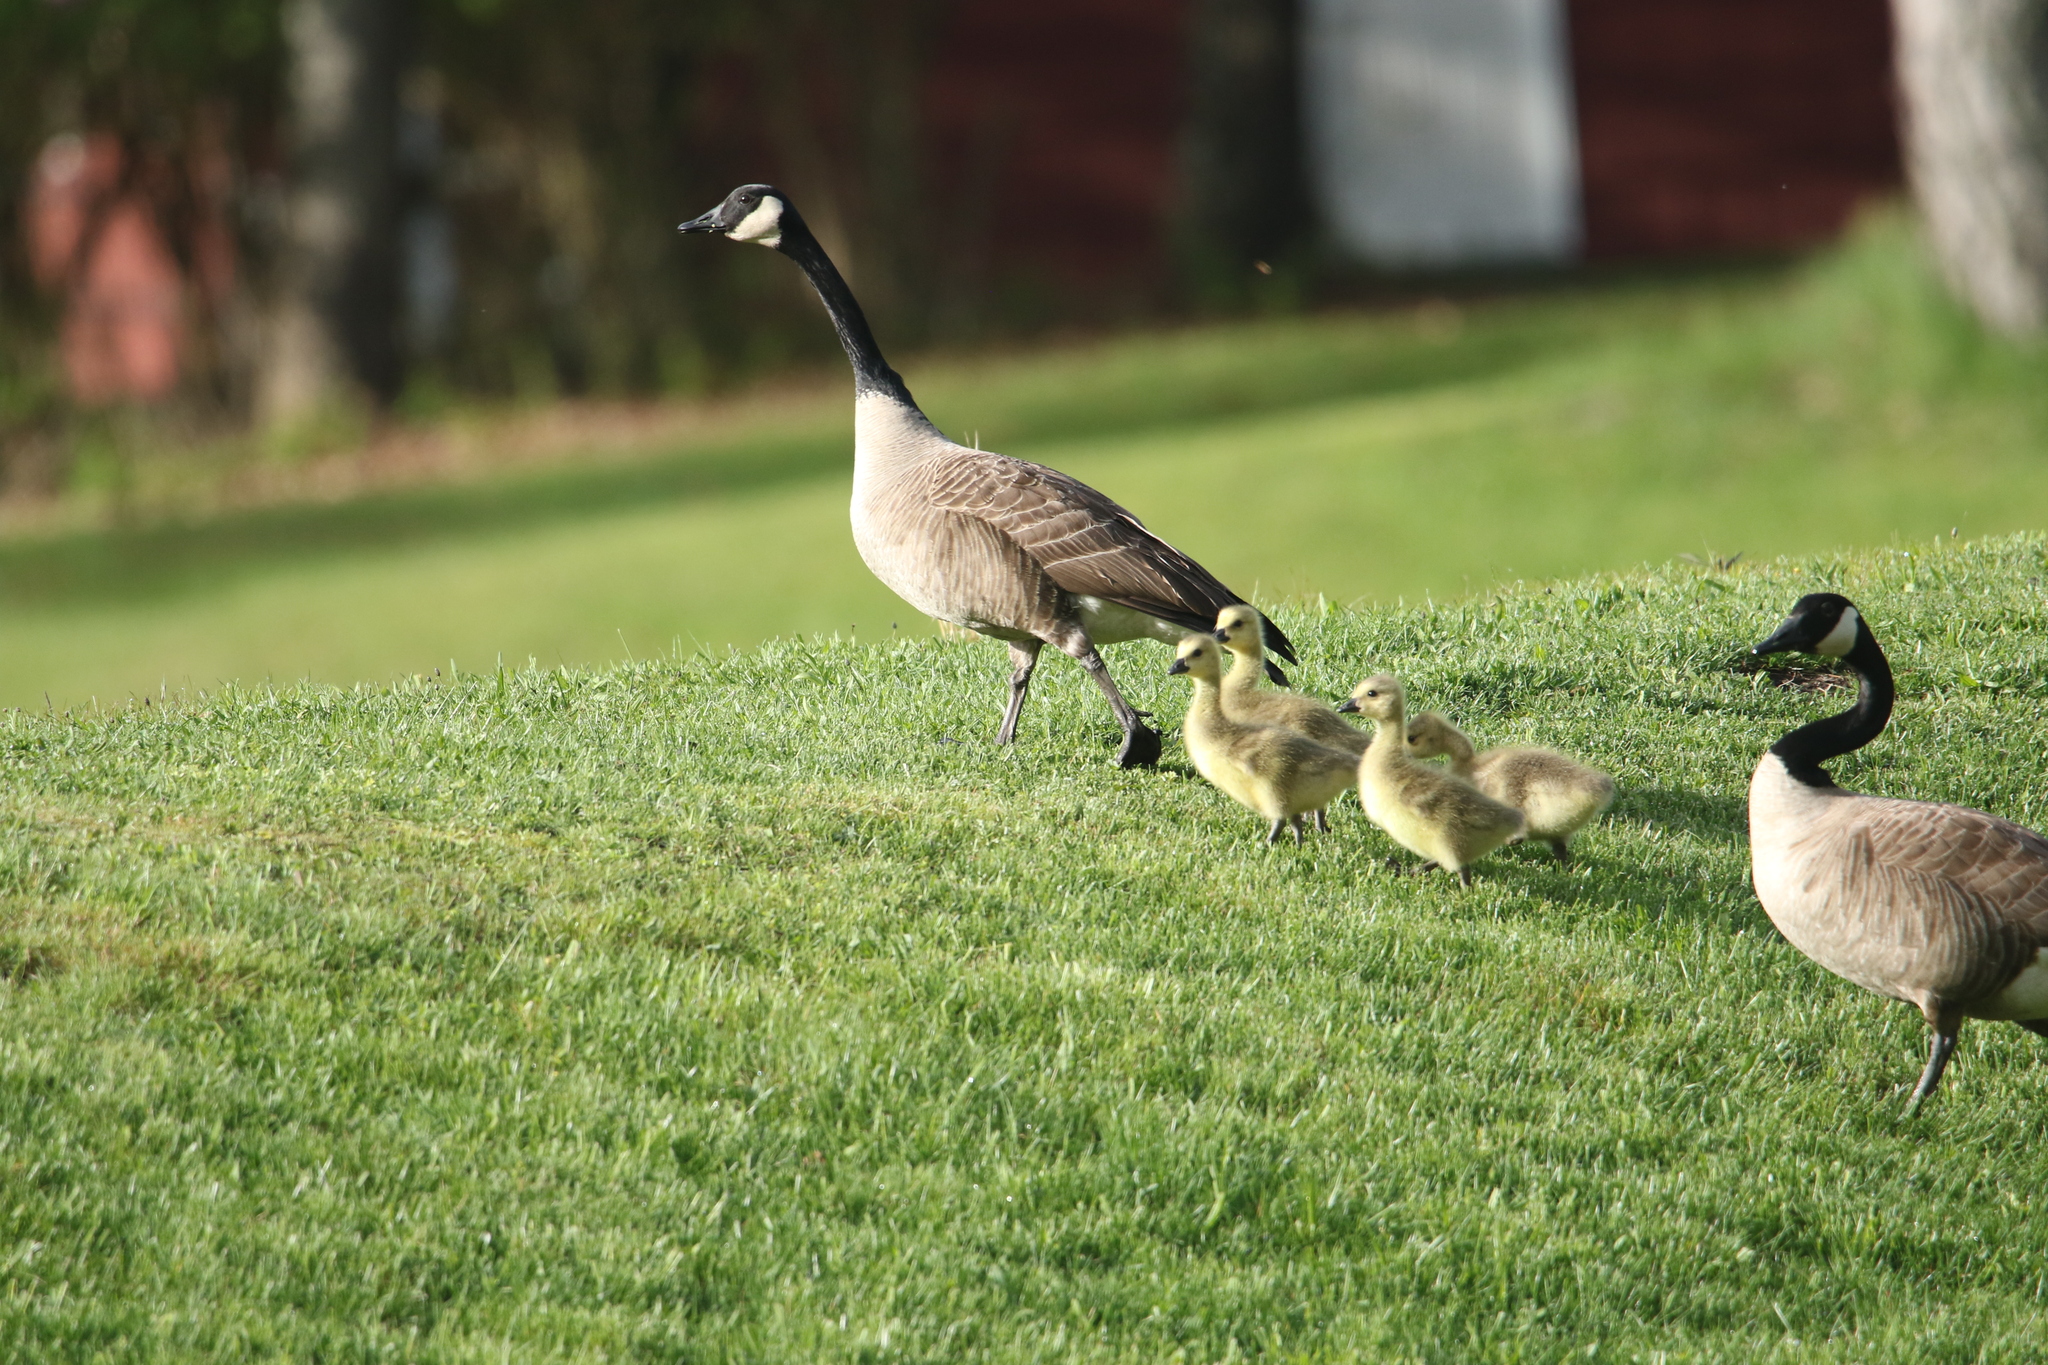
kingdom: Animalia
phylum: Chordata
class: Aves
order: Anseriformes
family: Anatidae
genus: Branta
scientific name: Branta canadensis
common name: Canada goose
